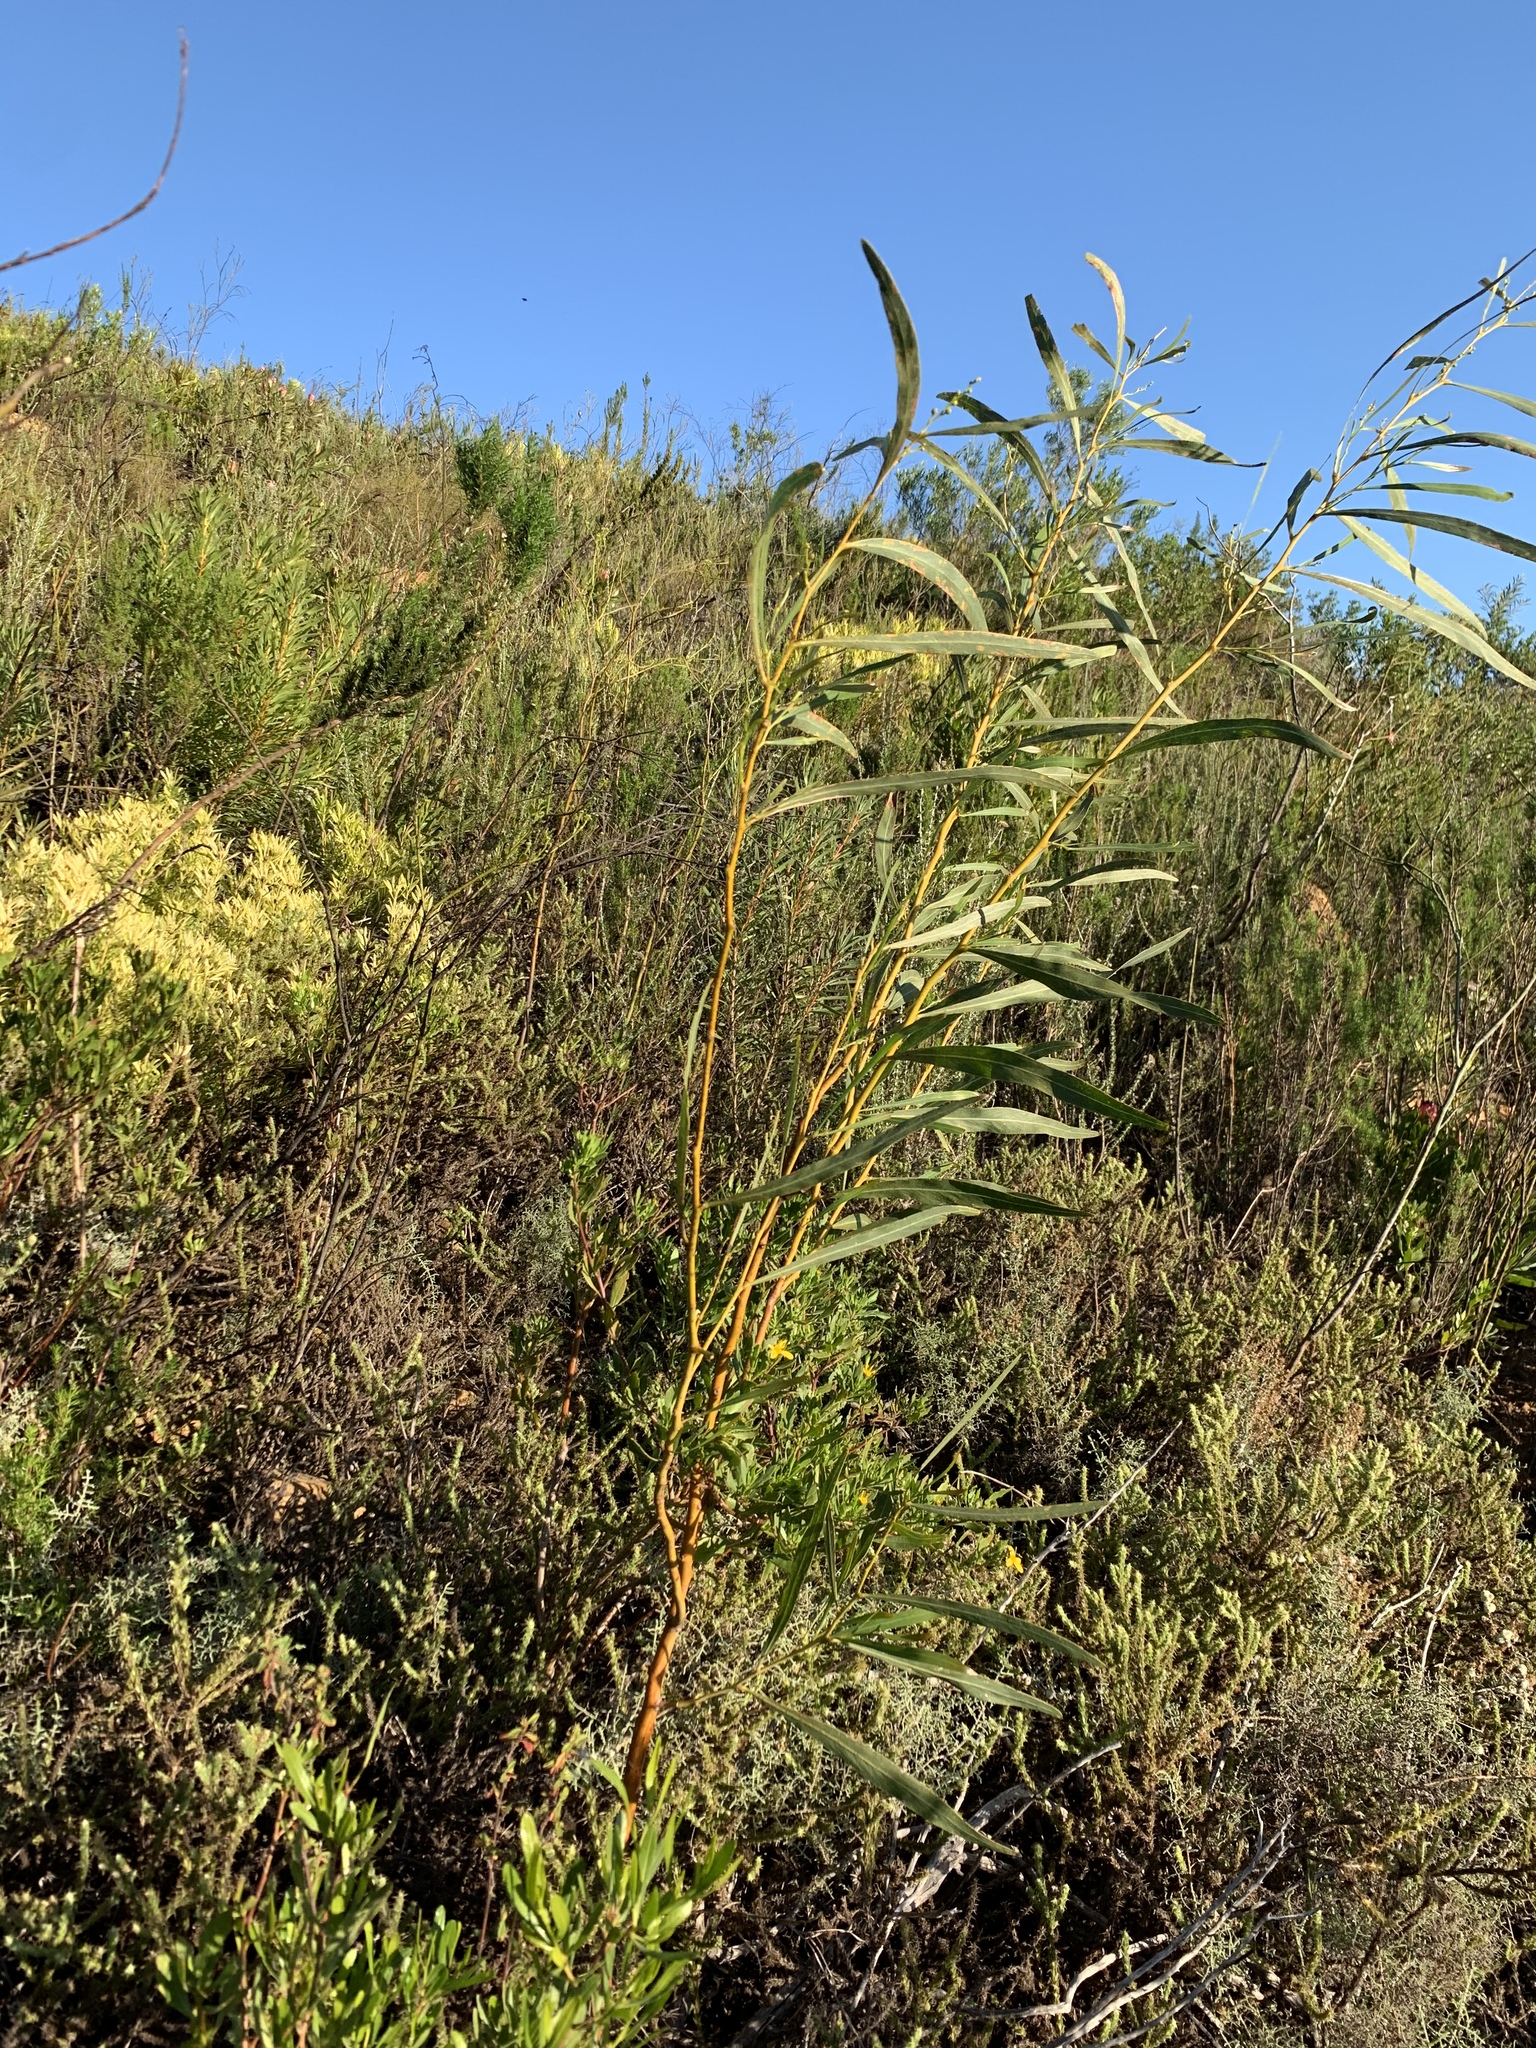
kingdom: Plantae
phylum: Tracheophyta
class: Magnoliopsida
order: Fabales
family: Fabaceae
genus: Acacia
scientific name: Acacia saligna
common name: Orange wattle
